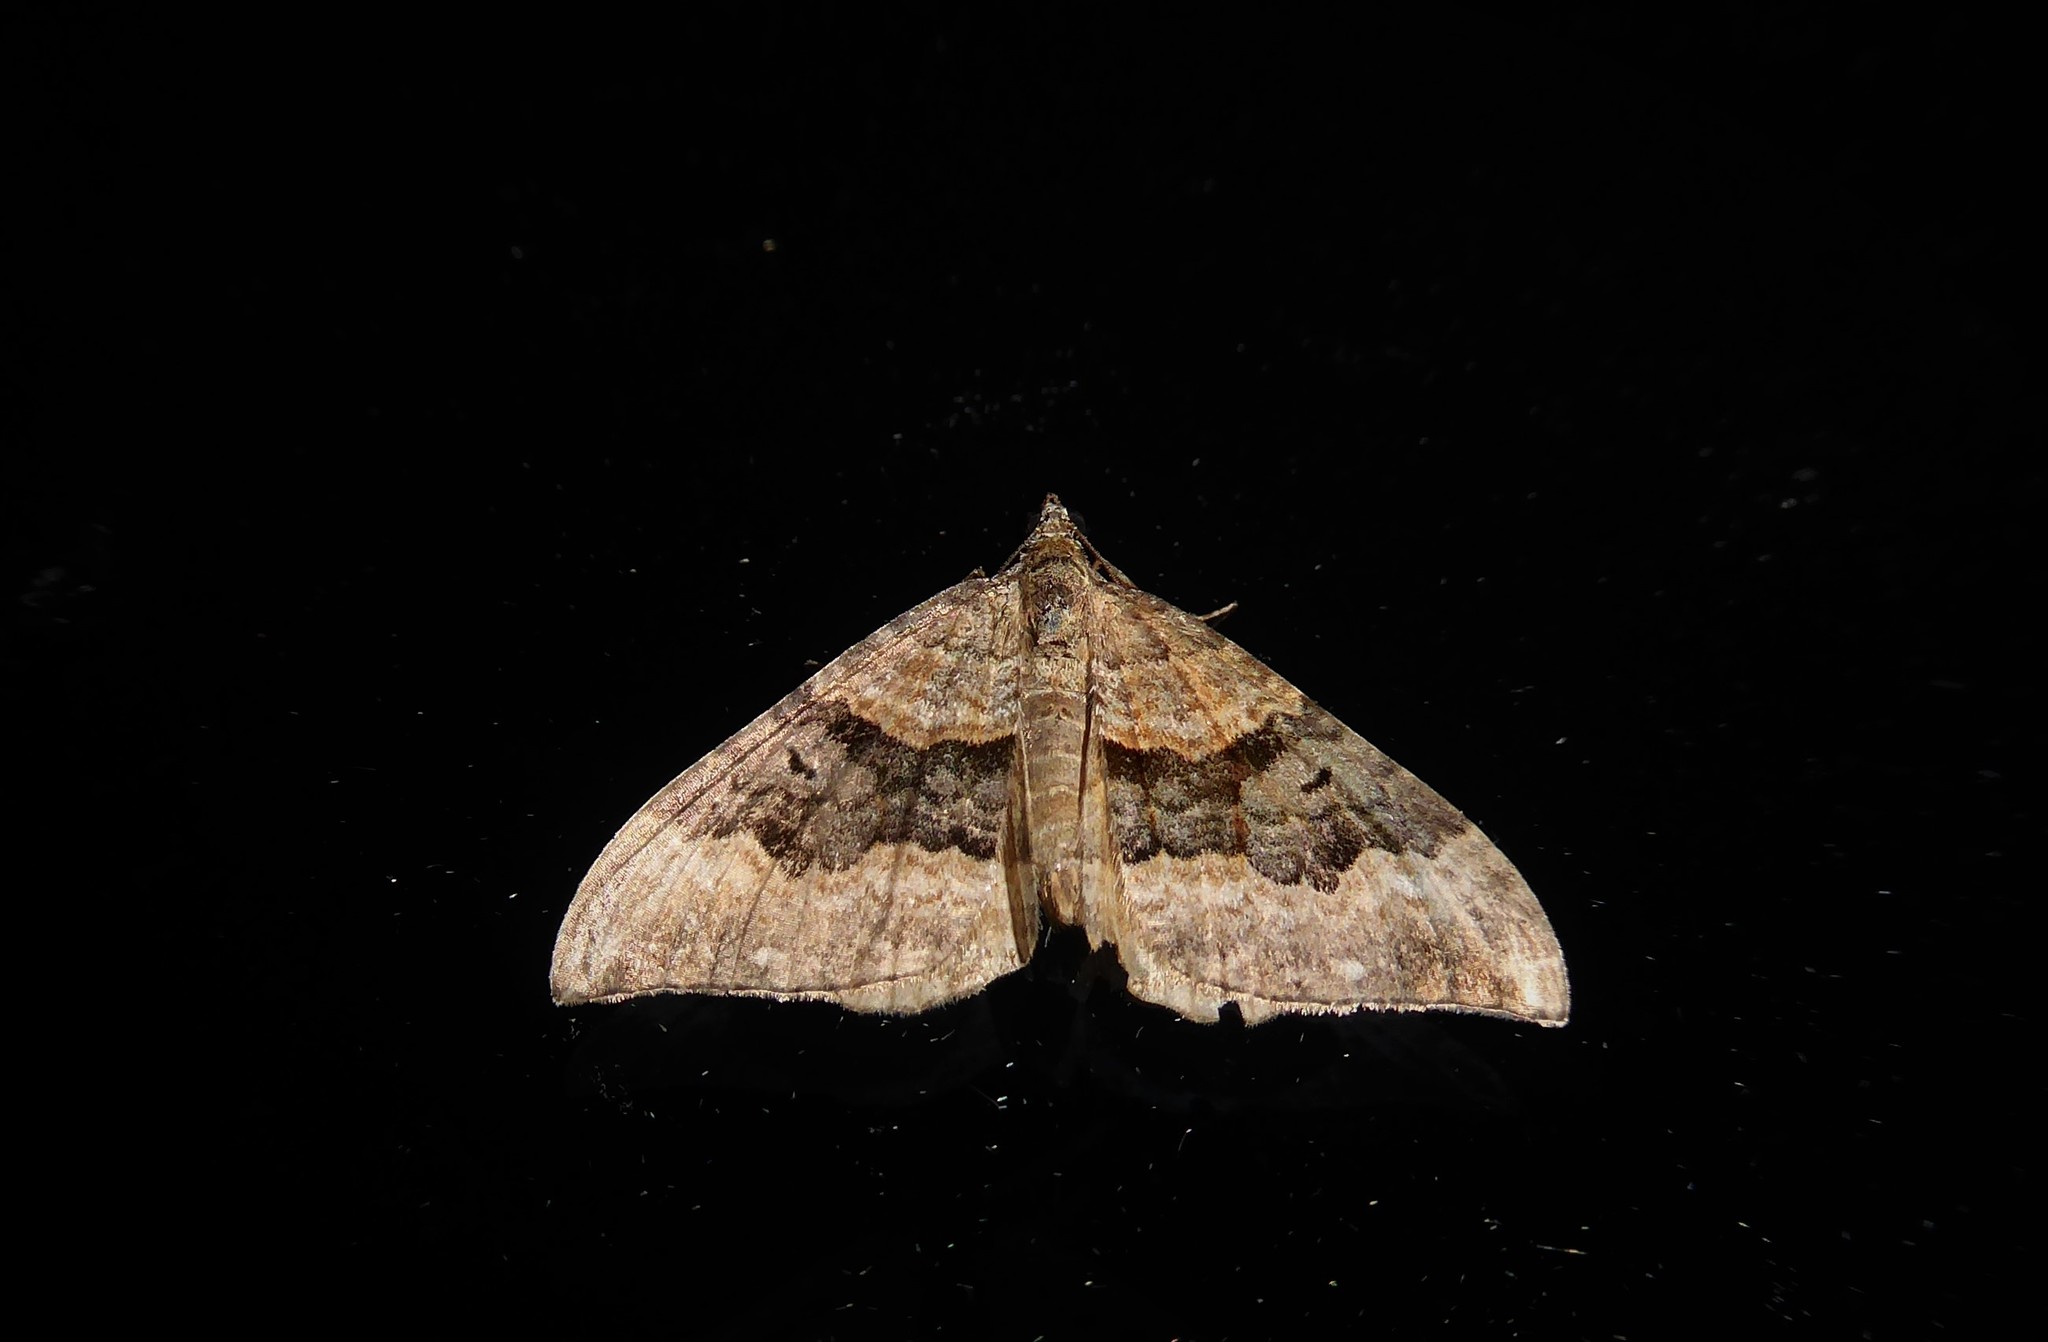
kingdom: Animalia
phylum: Arthropoda
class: Insecta
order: Lepidoptera
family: Geometridae
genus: Hydriomena
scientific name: Hydriomena deltoidata
